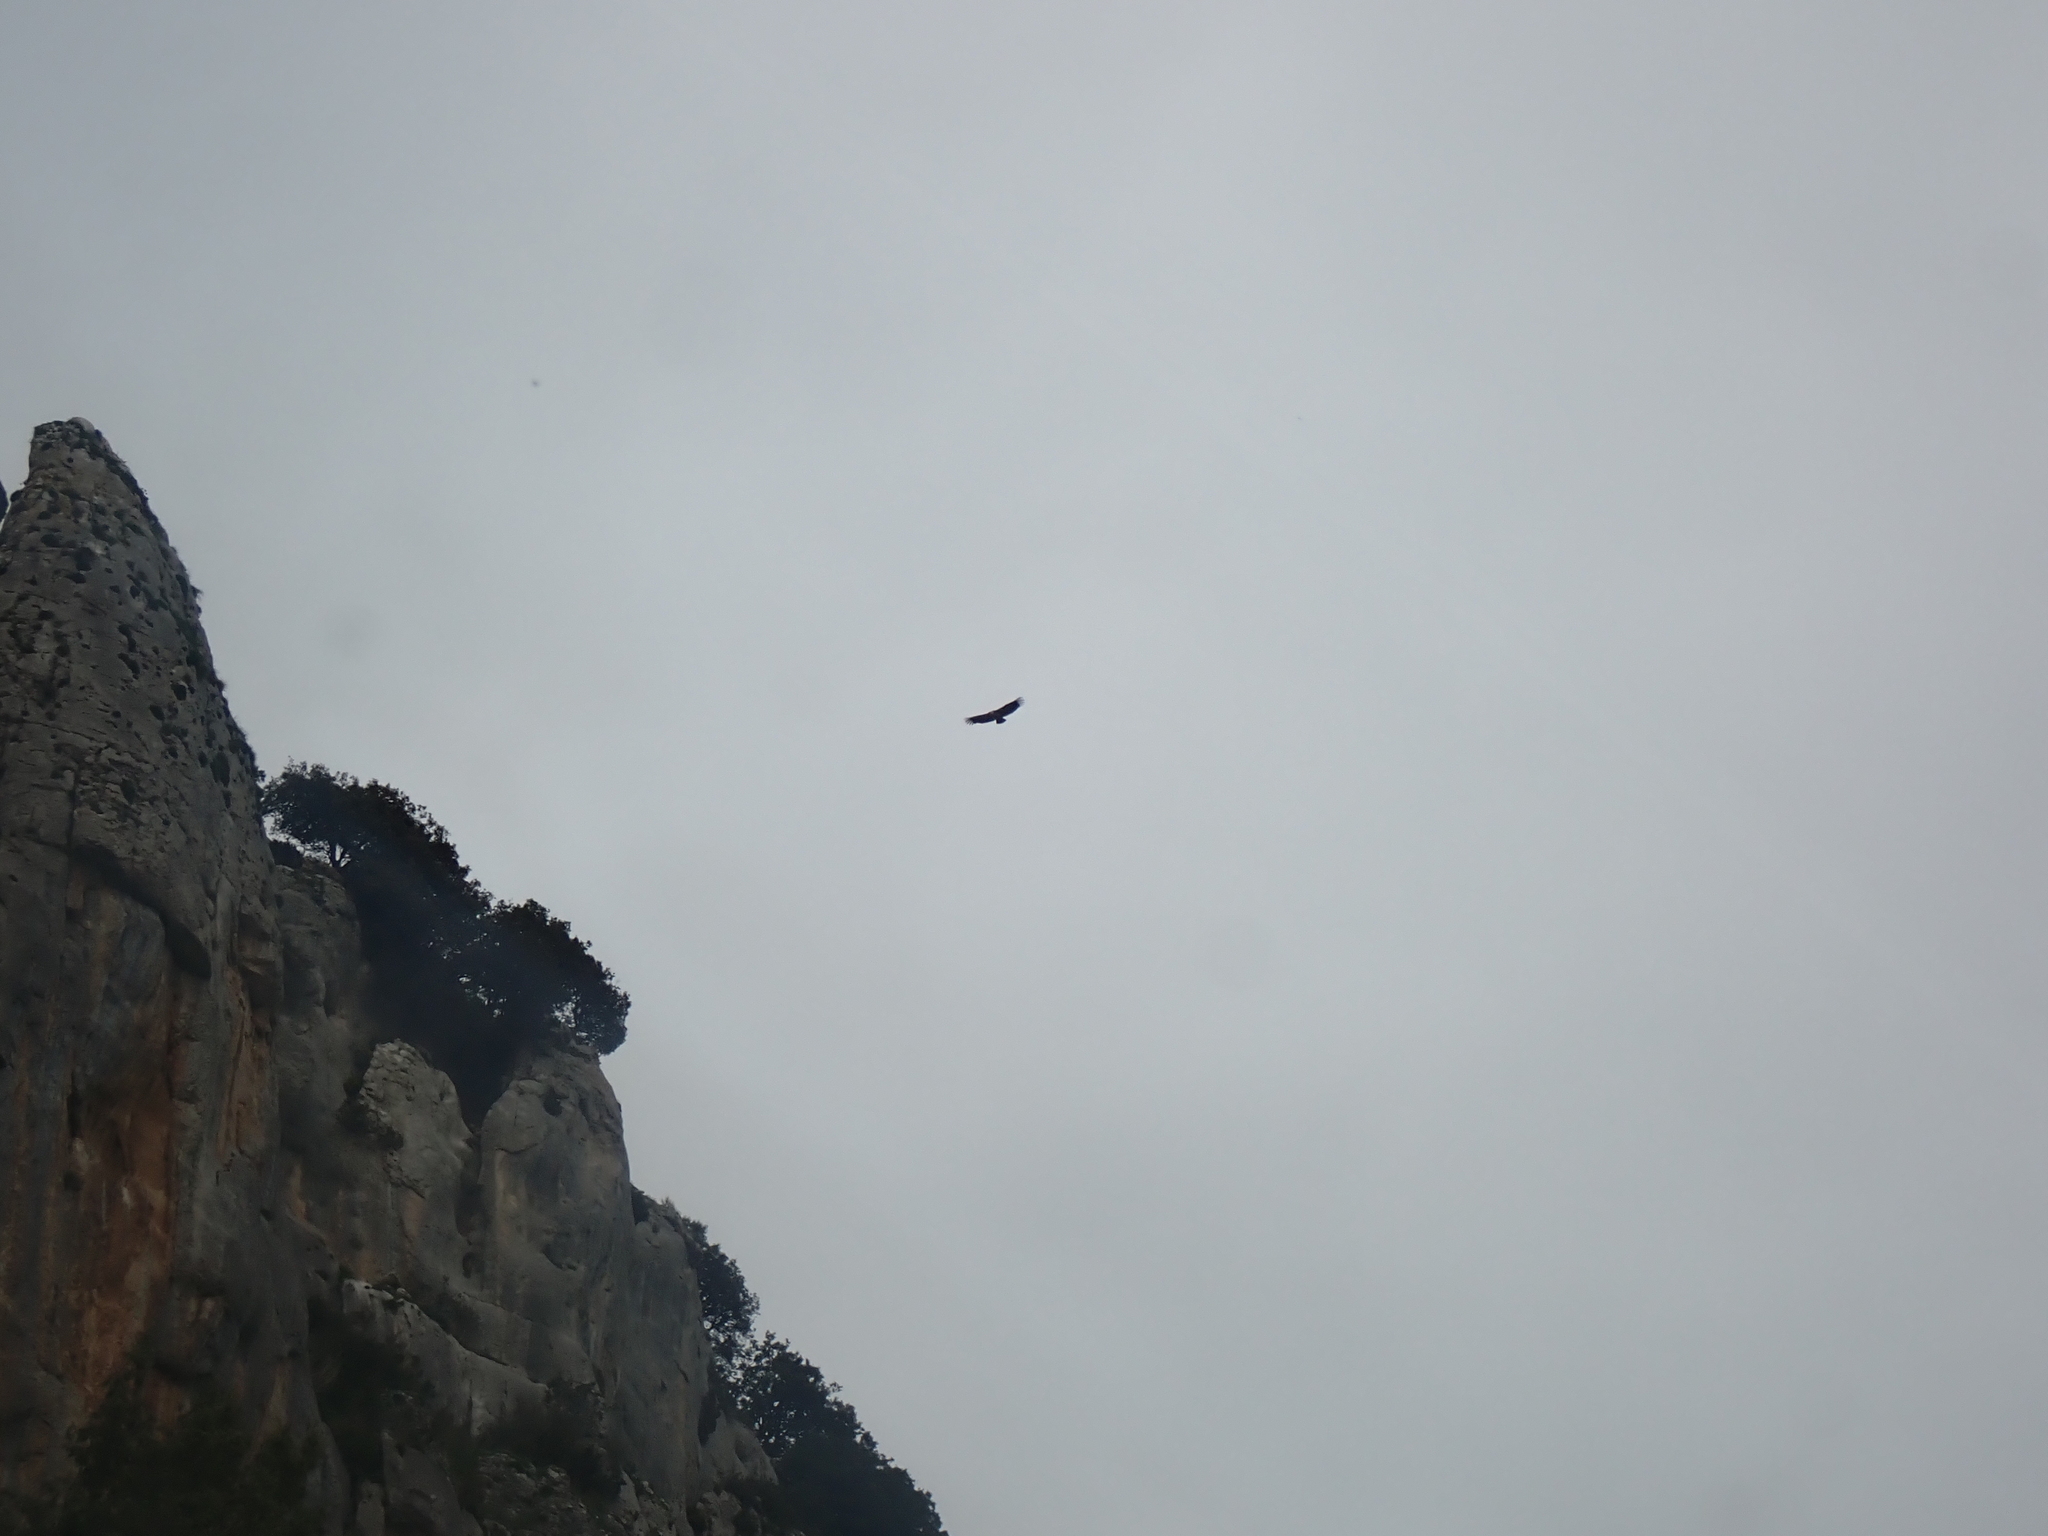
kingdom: Animalia
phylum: Chordata
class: Aves
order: Accipitriformes
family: Accipitridae
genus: Gyps
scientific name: Gyps fulvus
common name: Griffon vulture
